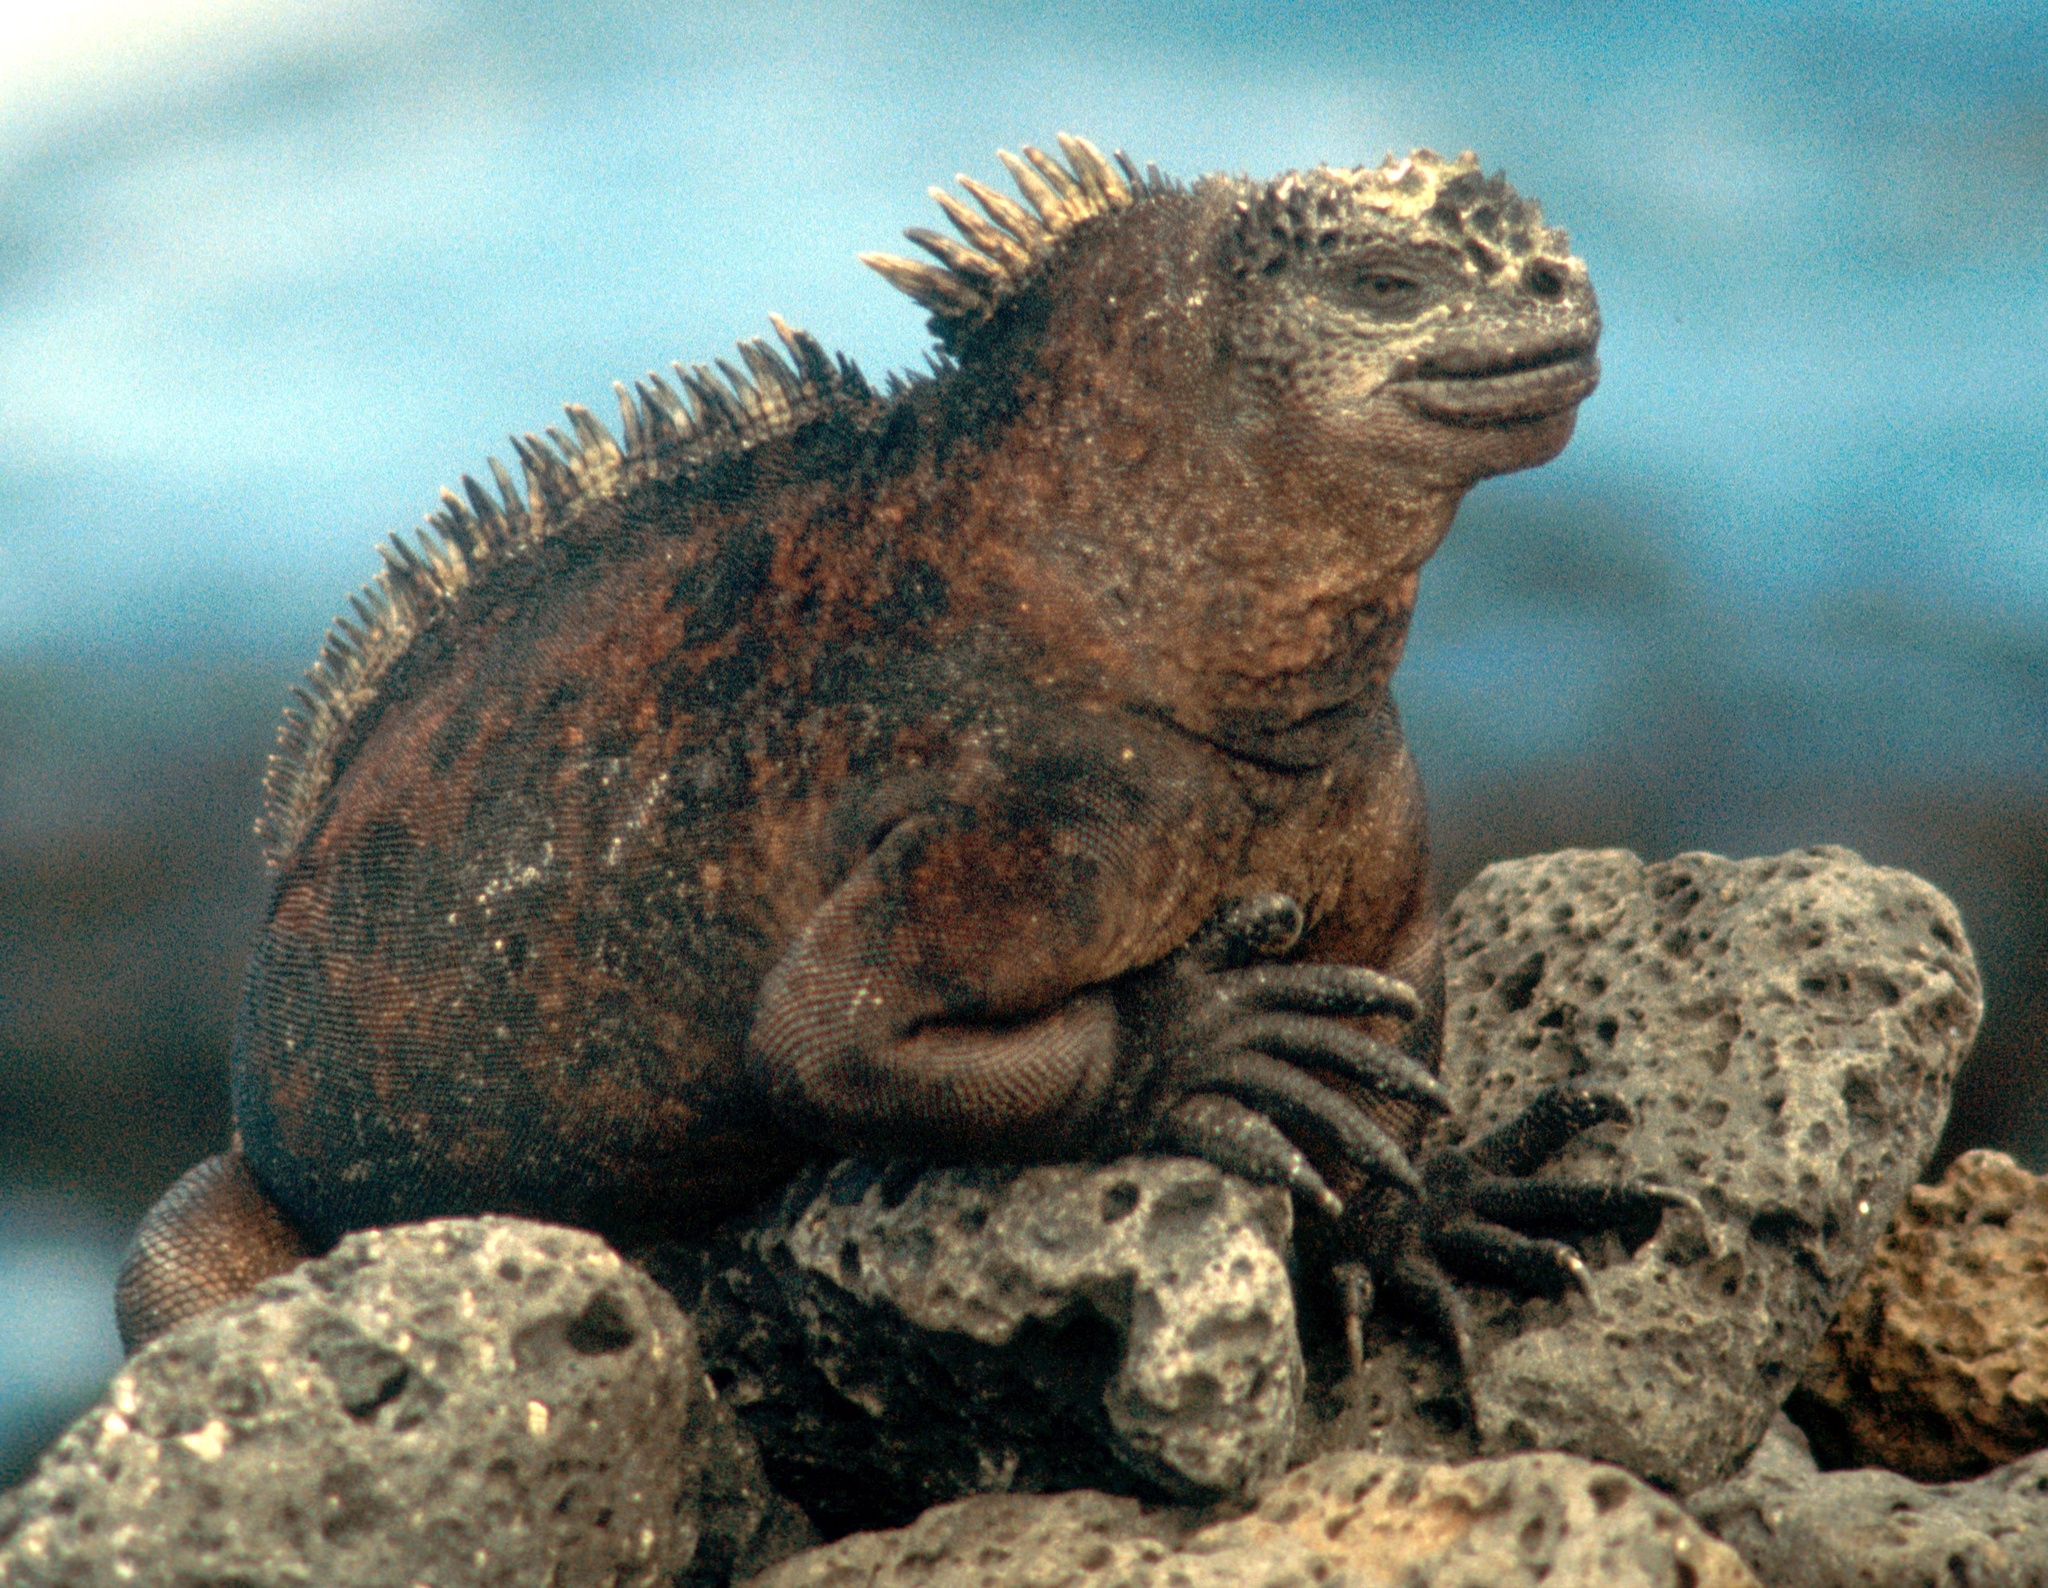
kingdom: Animalia
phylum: Chordata
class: Squamata
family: Iguanidae
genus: Amblyrhynchus
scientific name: Amblyrhynchus cristatus
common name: Marine iguana
